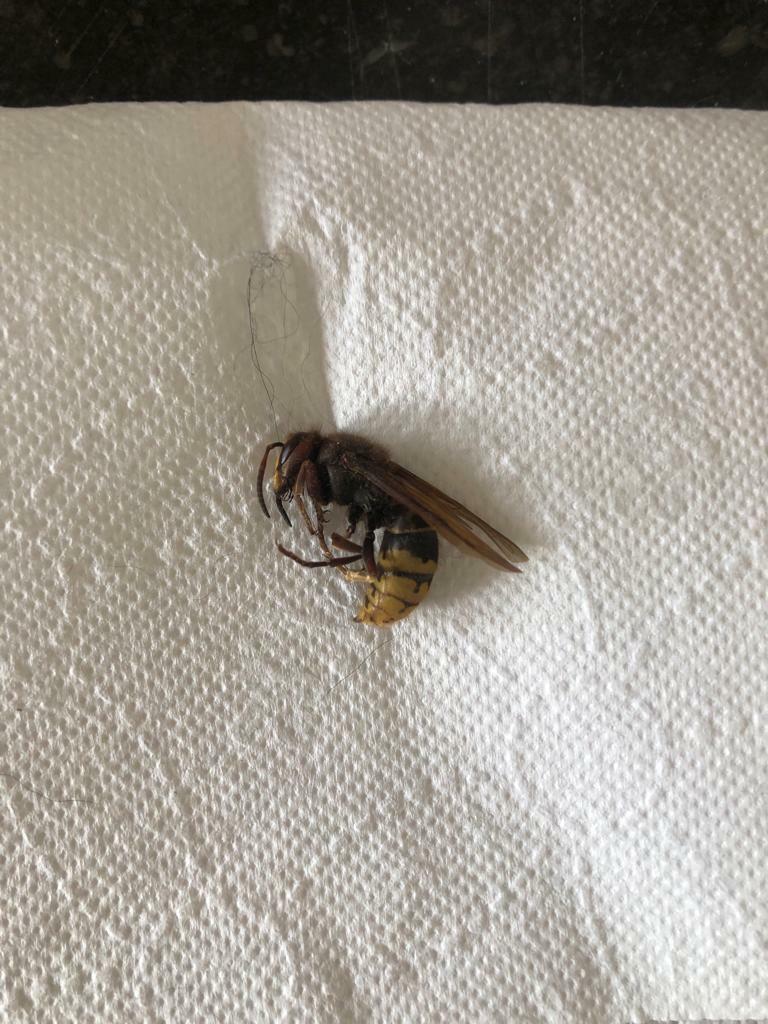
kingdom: Animalia
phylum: Arthropoda
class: Insecta
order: Hymenoptera
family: Vespidae
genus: Vespa
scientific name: Vespa crabro
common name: Hornet
